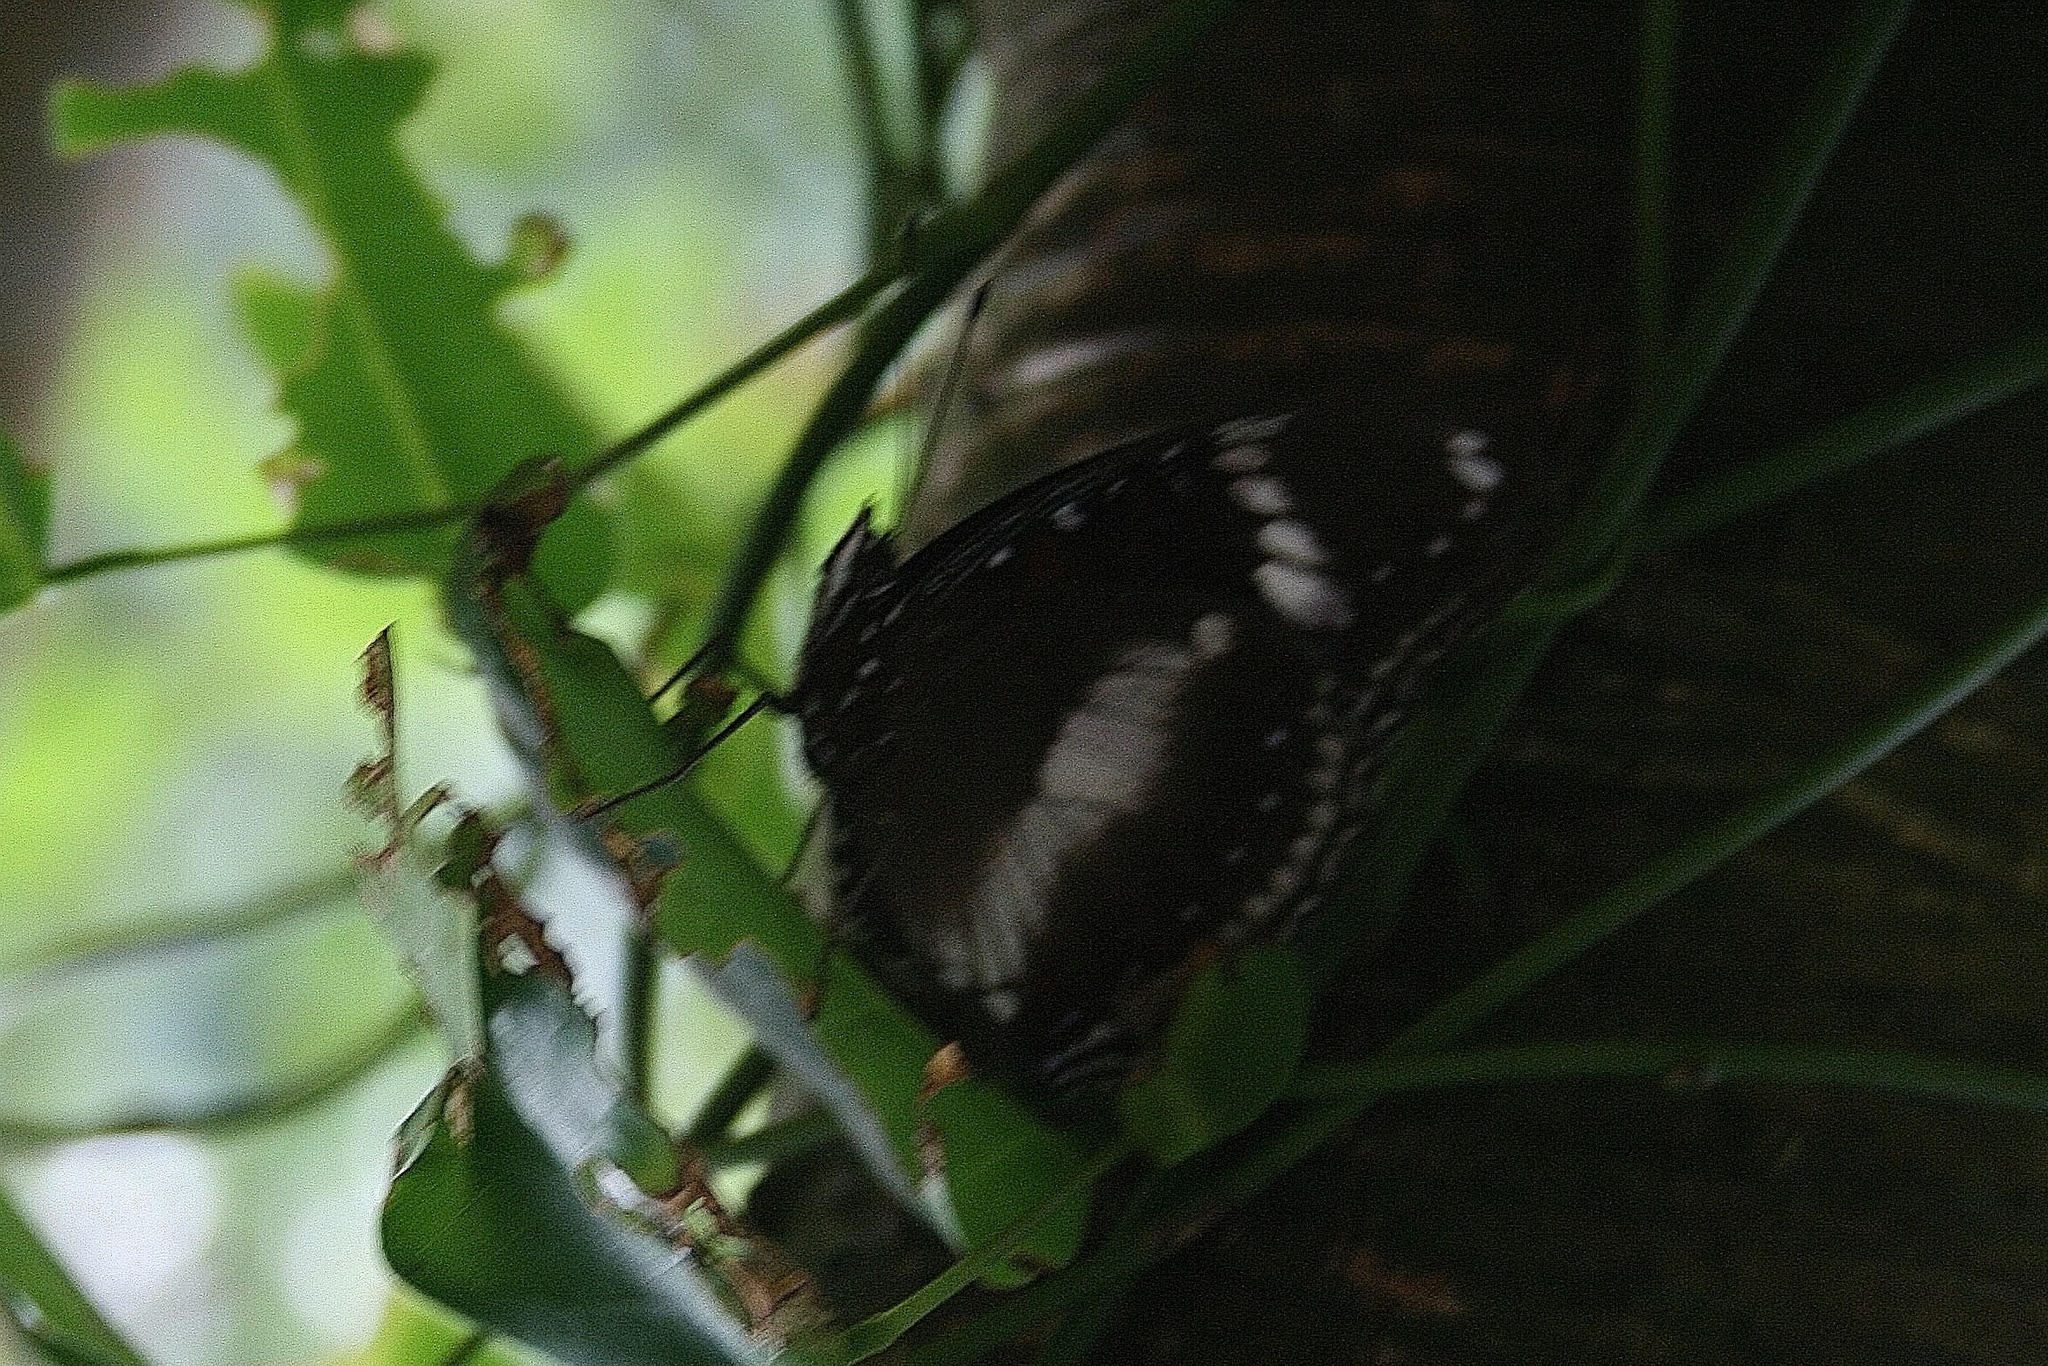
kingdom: Animalia
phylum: Arthropoda
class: Insecta
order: Lepidoptera
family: Nymphalidae
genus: Hypolimnas
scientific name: Hypolimnas bolina
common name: Great eggfly
